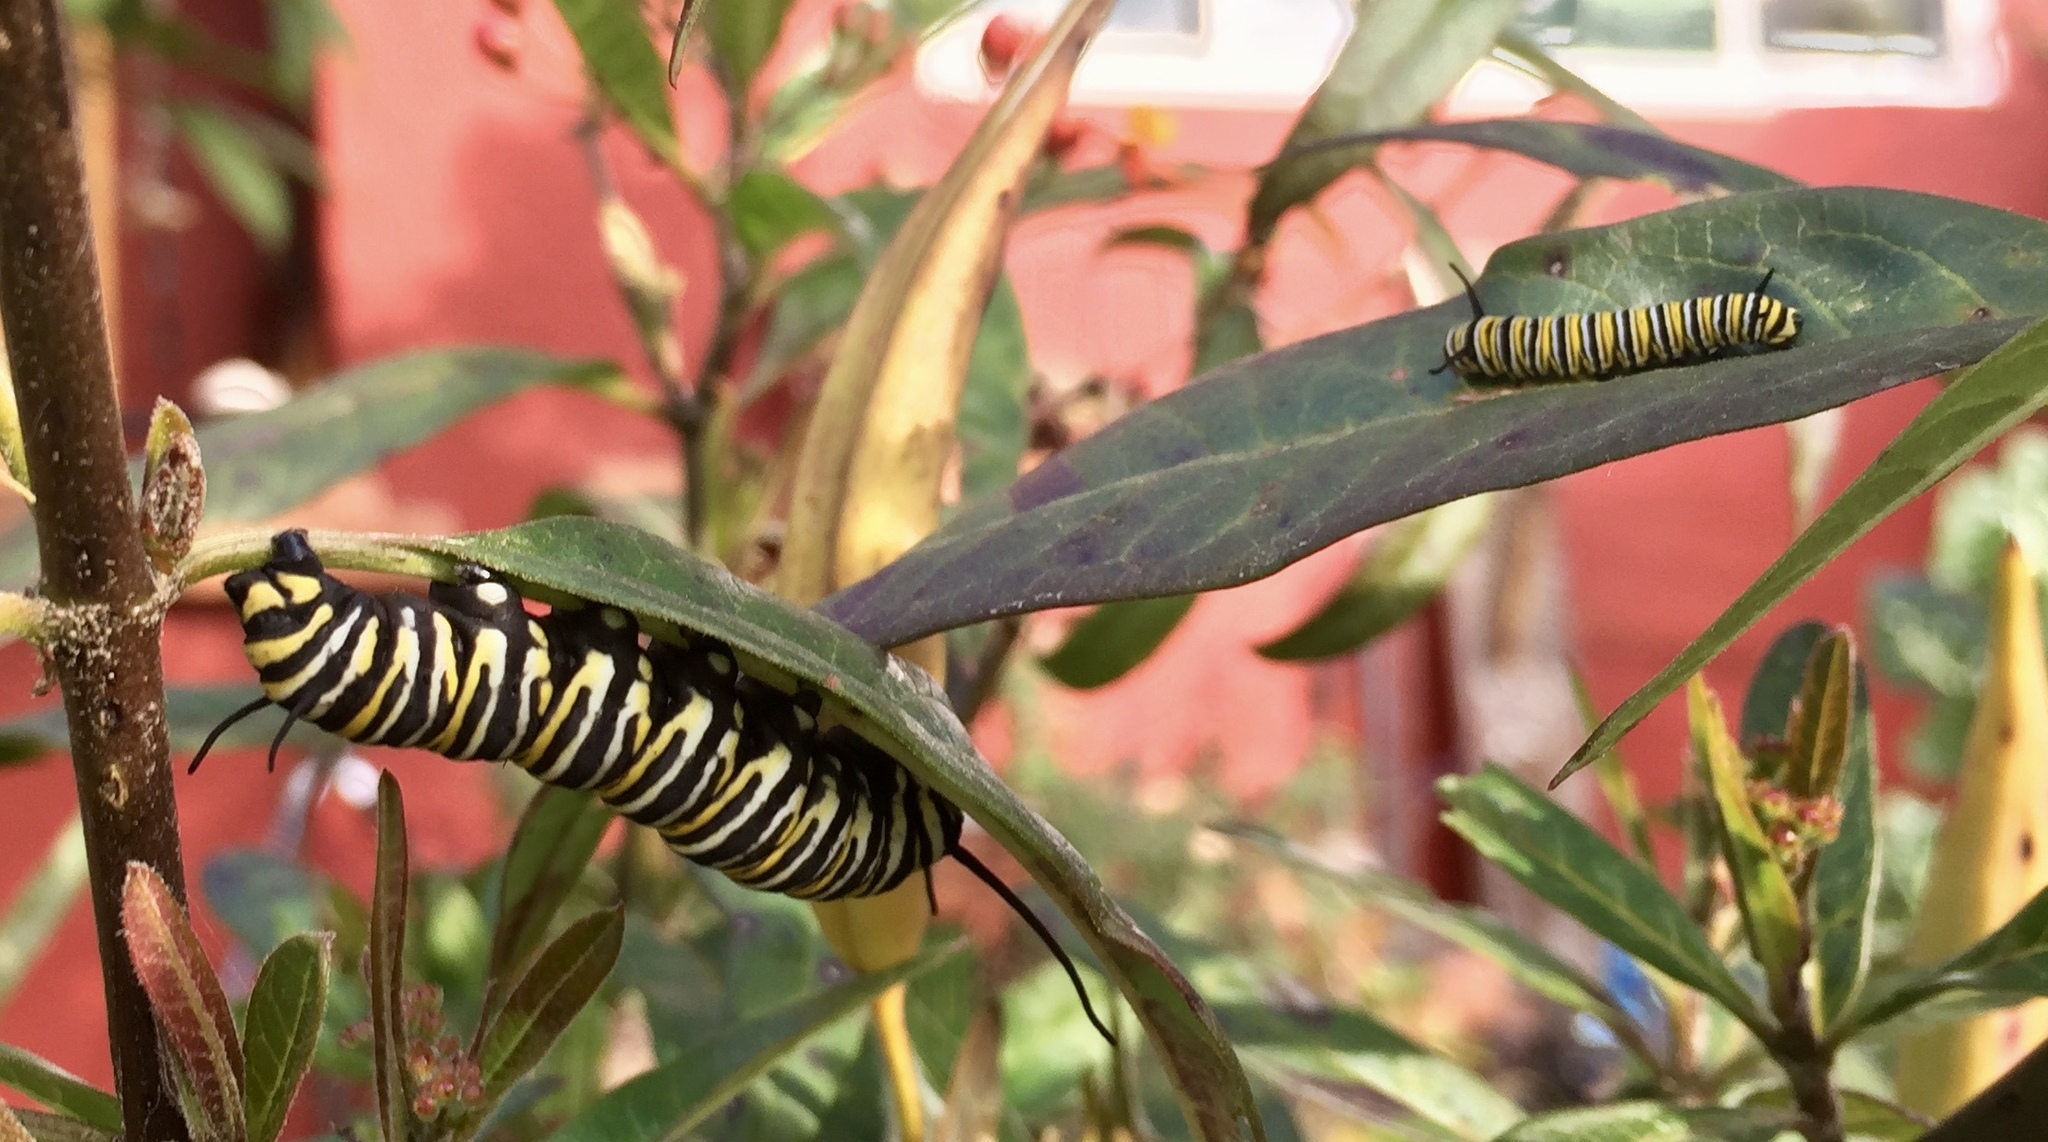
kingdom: Animalia
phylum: Arthropoda
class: Insecta
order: Lepidoptera
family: Nymphalidae
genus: Danaus
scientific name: Danaus plexippus
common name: Monarch
